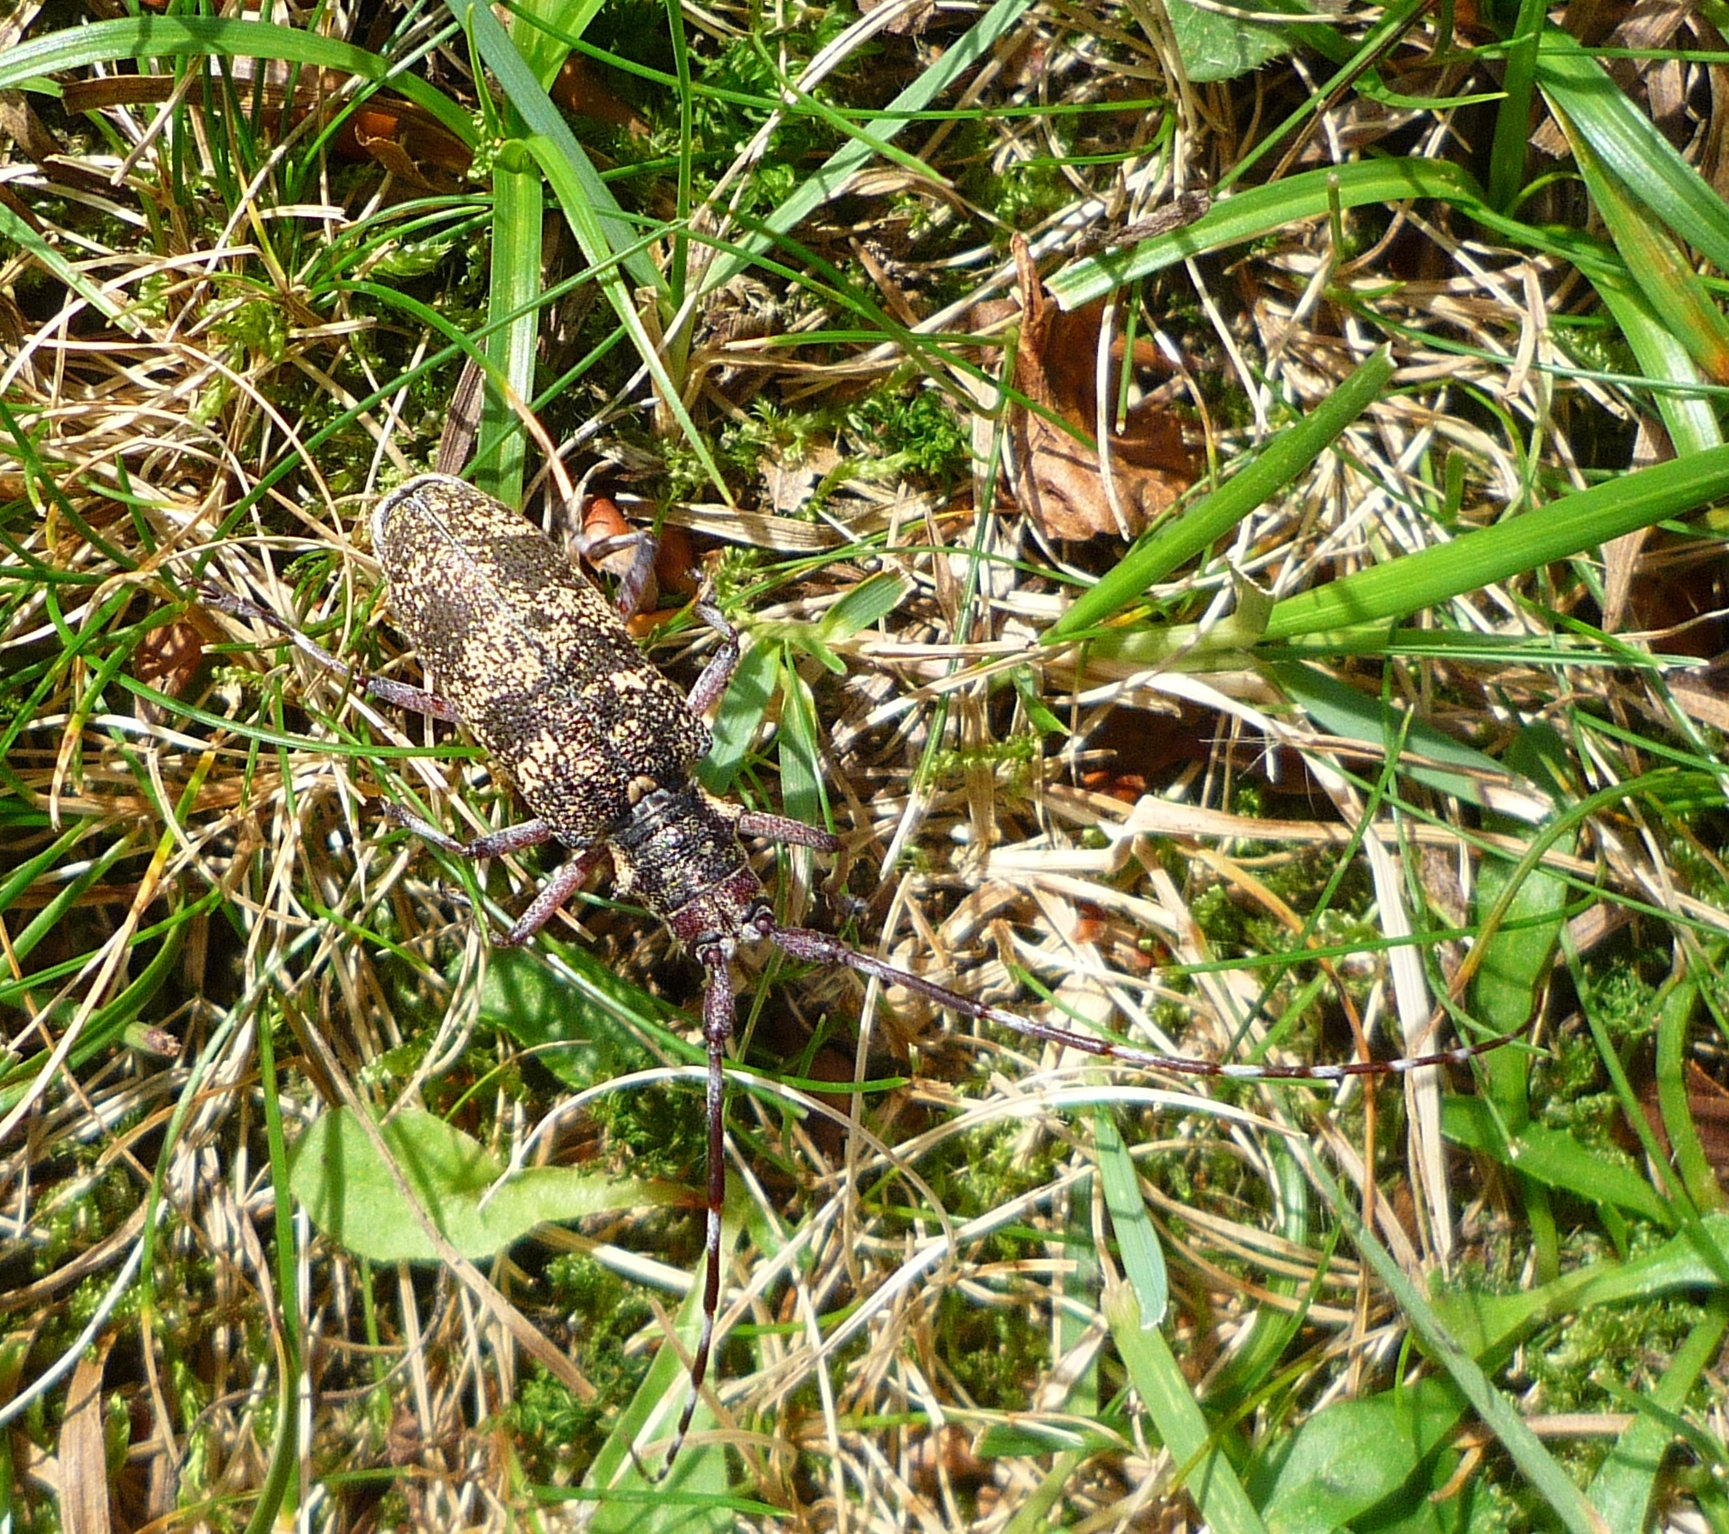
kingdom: Animalia
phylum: Arthropoda
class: Insecta
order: Coleoptera
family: Cerambycidae
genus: Monochamus
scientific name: Monochamus galloprovincialis
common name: Pine sawyer
